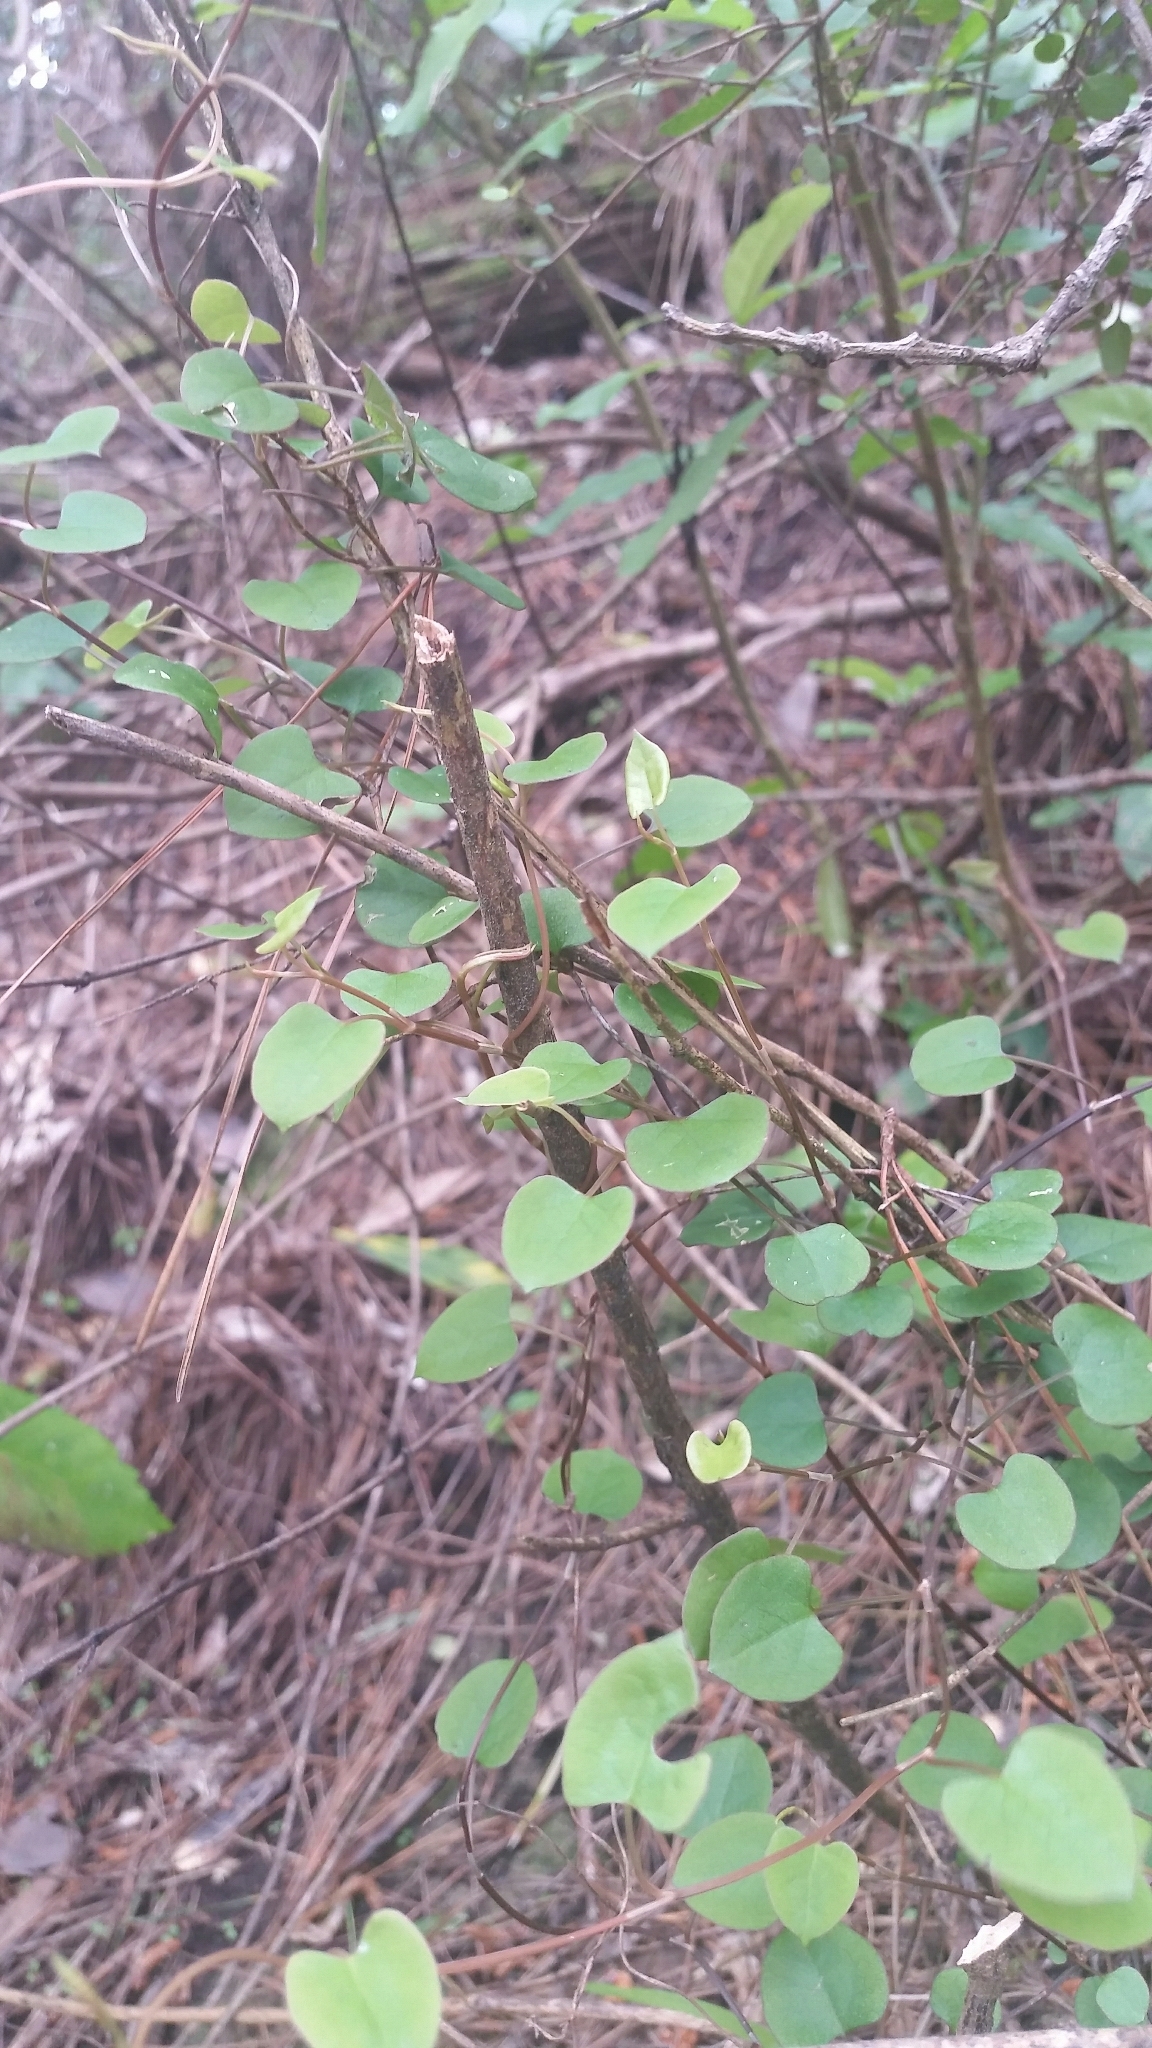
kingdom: Plantae
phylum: Tracheophyta
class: Magnoliopsida
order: Caryophyllales
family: Polygonaceae
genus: Muehlenbeckia
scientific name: Muehlenbeckia australis
